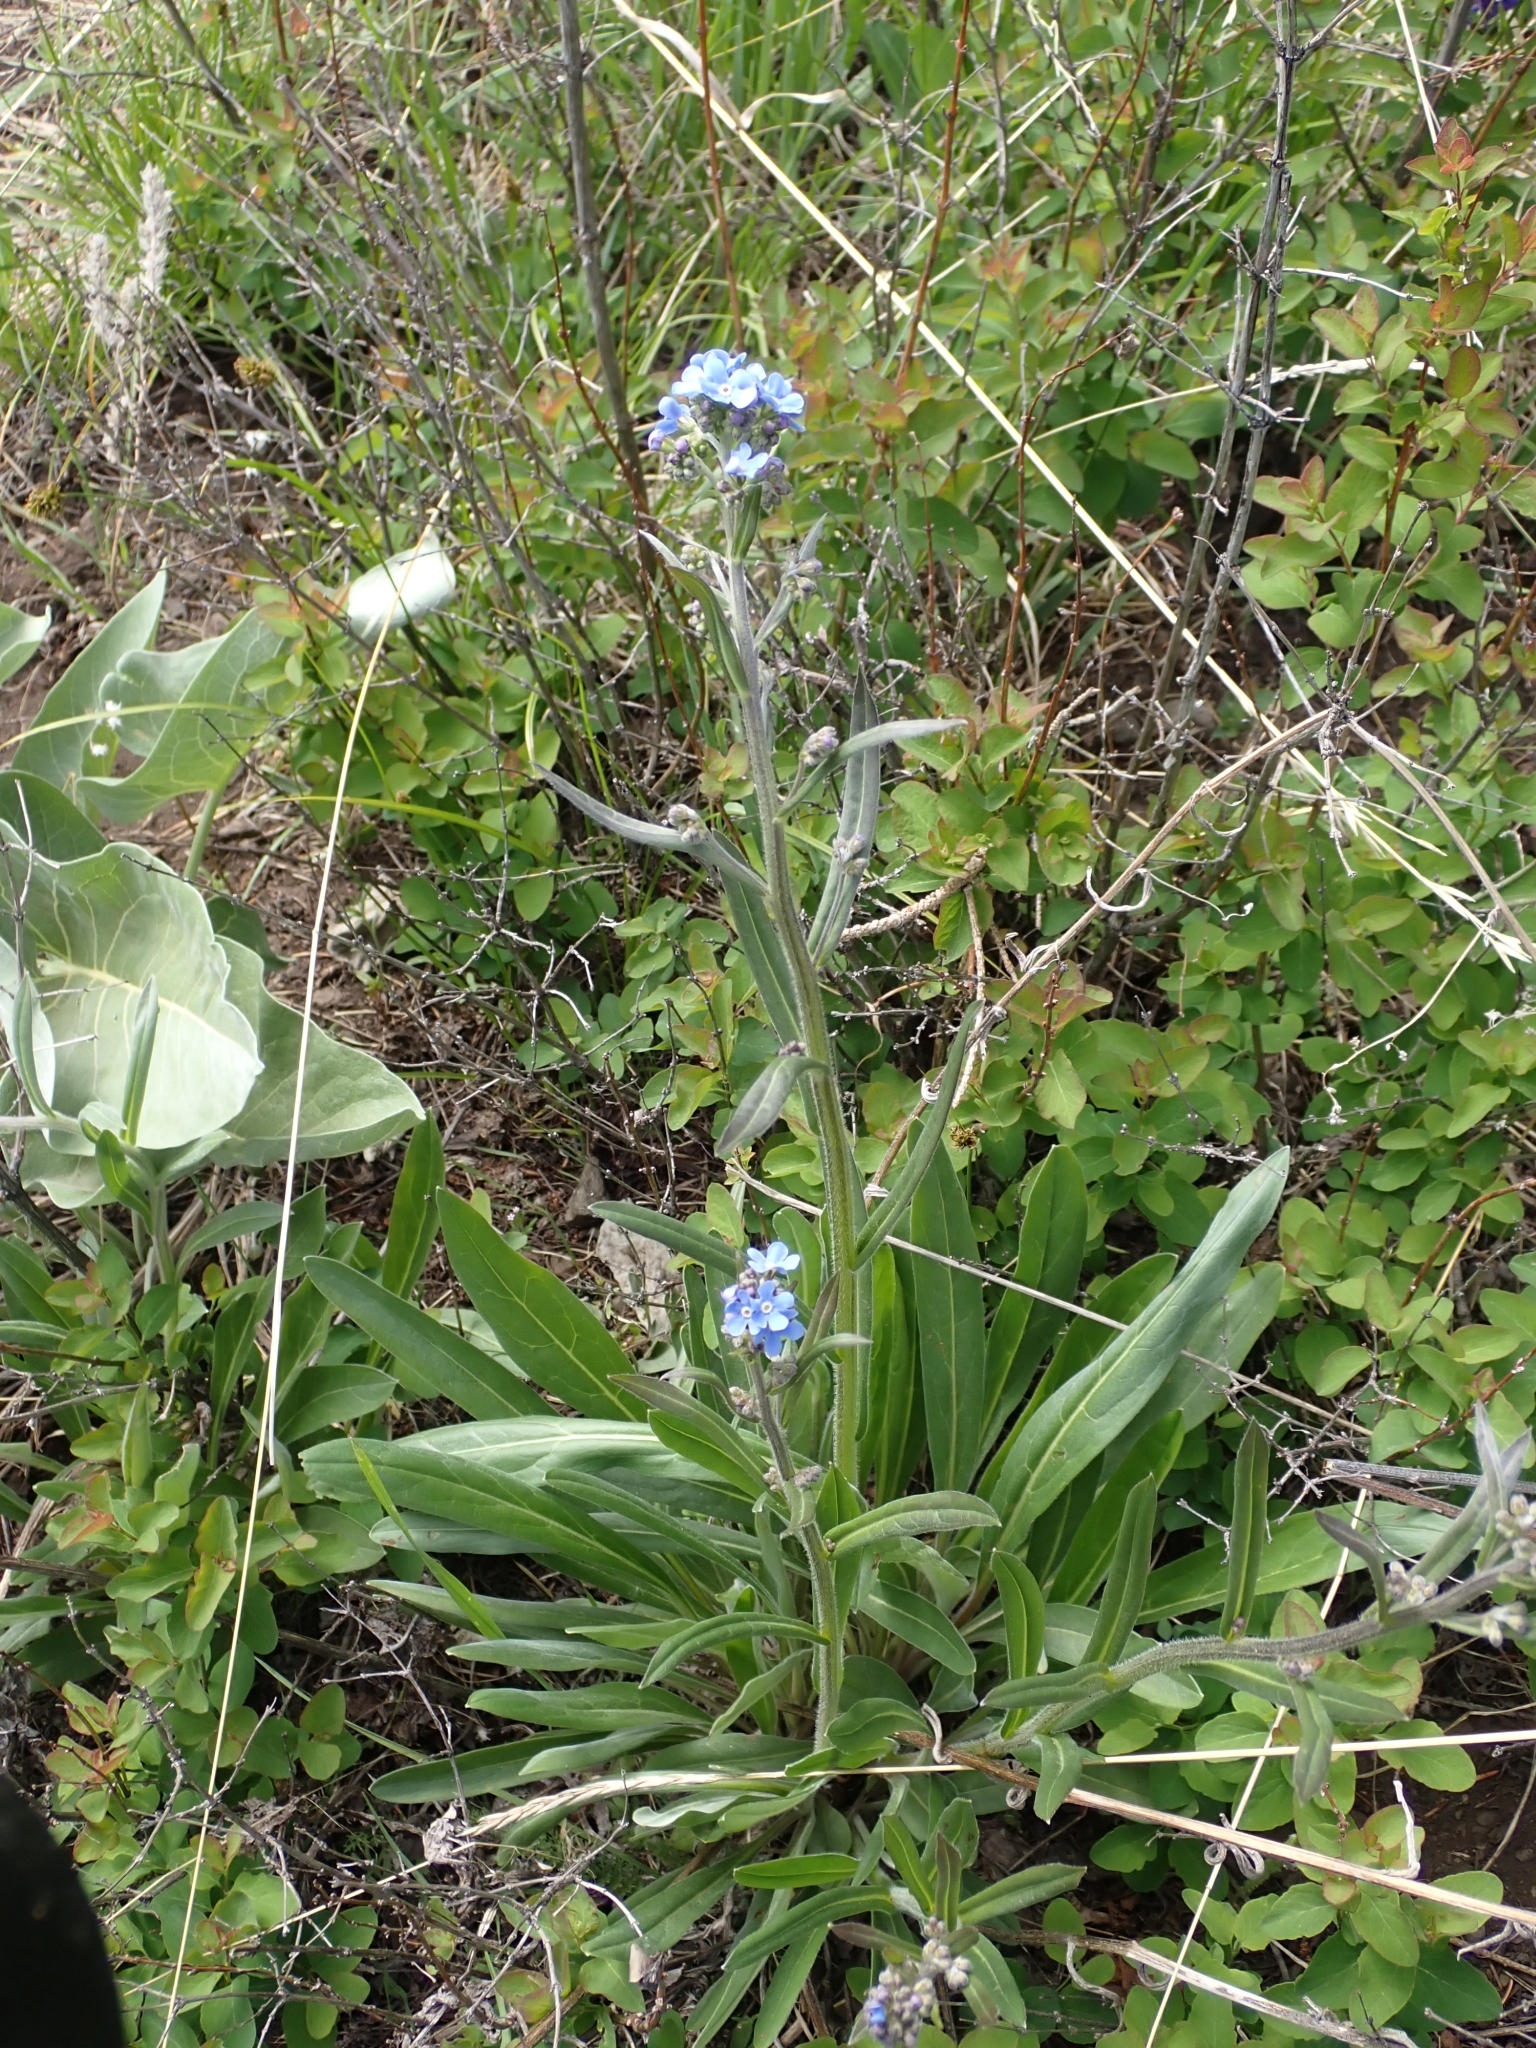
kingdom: Plantae
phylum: Tracheophyta
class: Magnoliopsida
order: Boraginales
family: Boraginaceae
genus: Hackelia
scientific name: Hackelia micrantha
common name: Meadow stickseed
